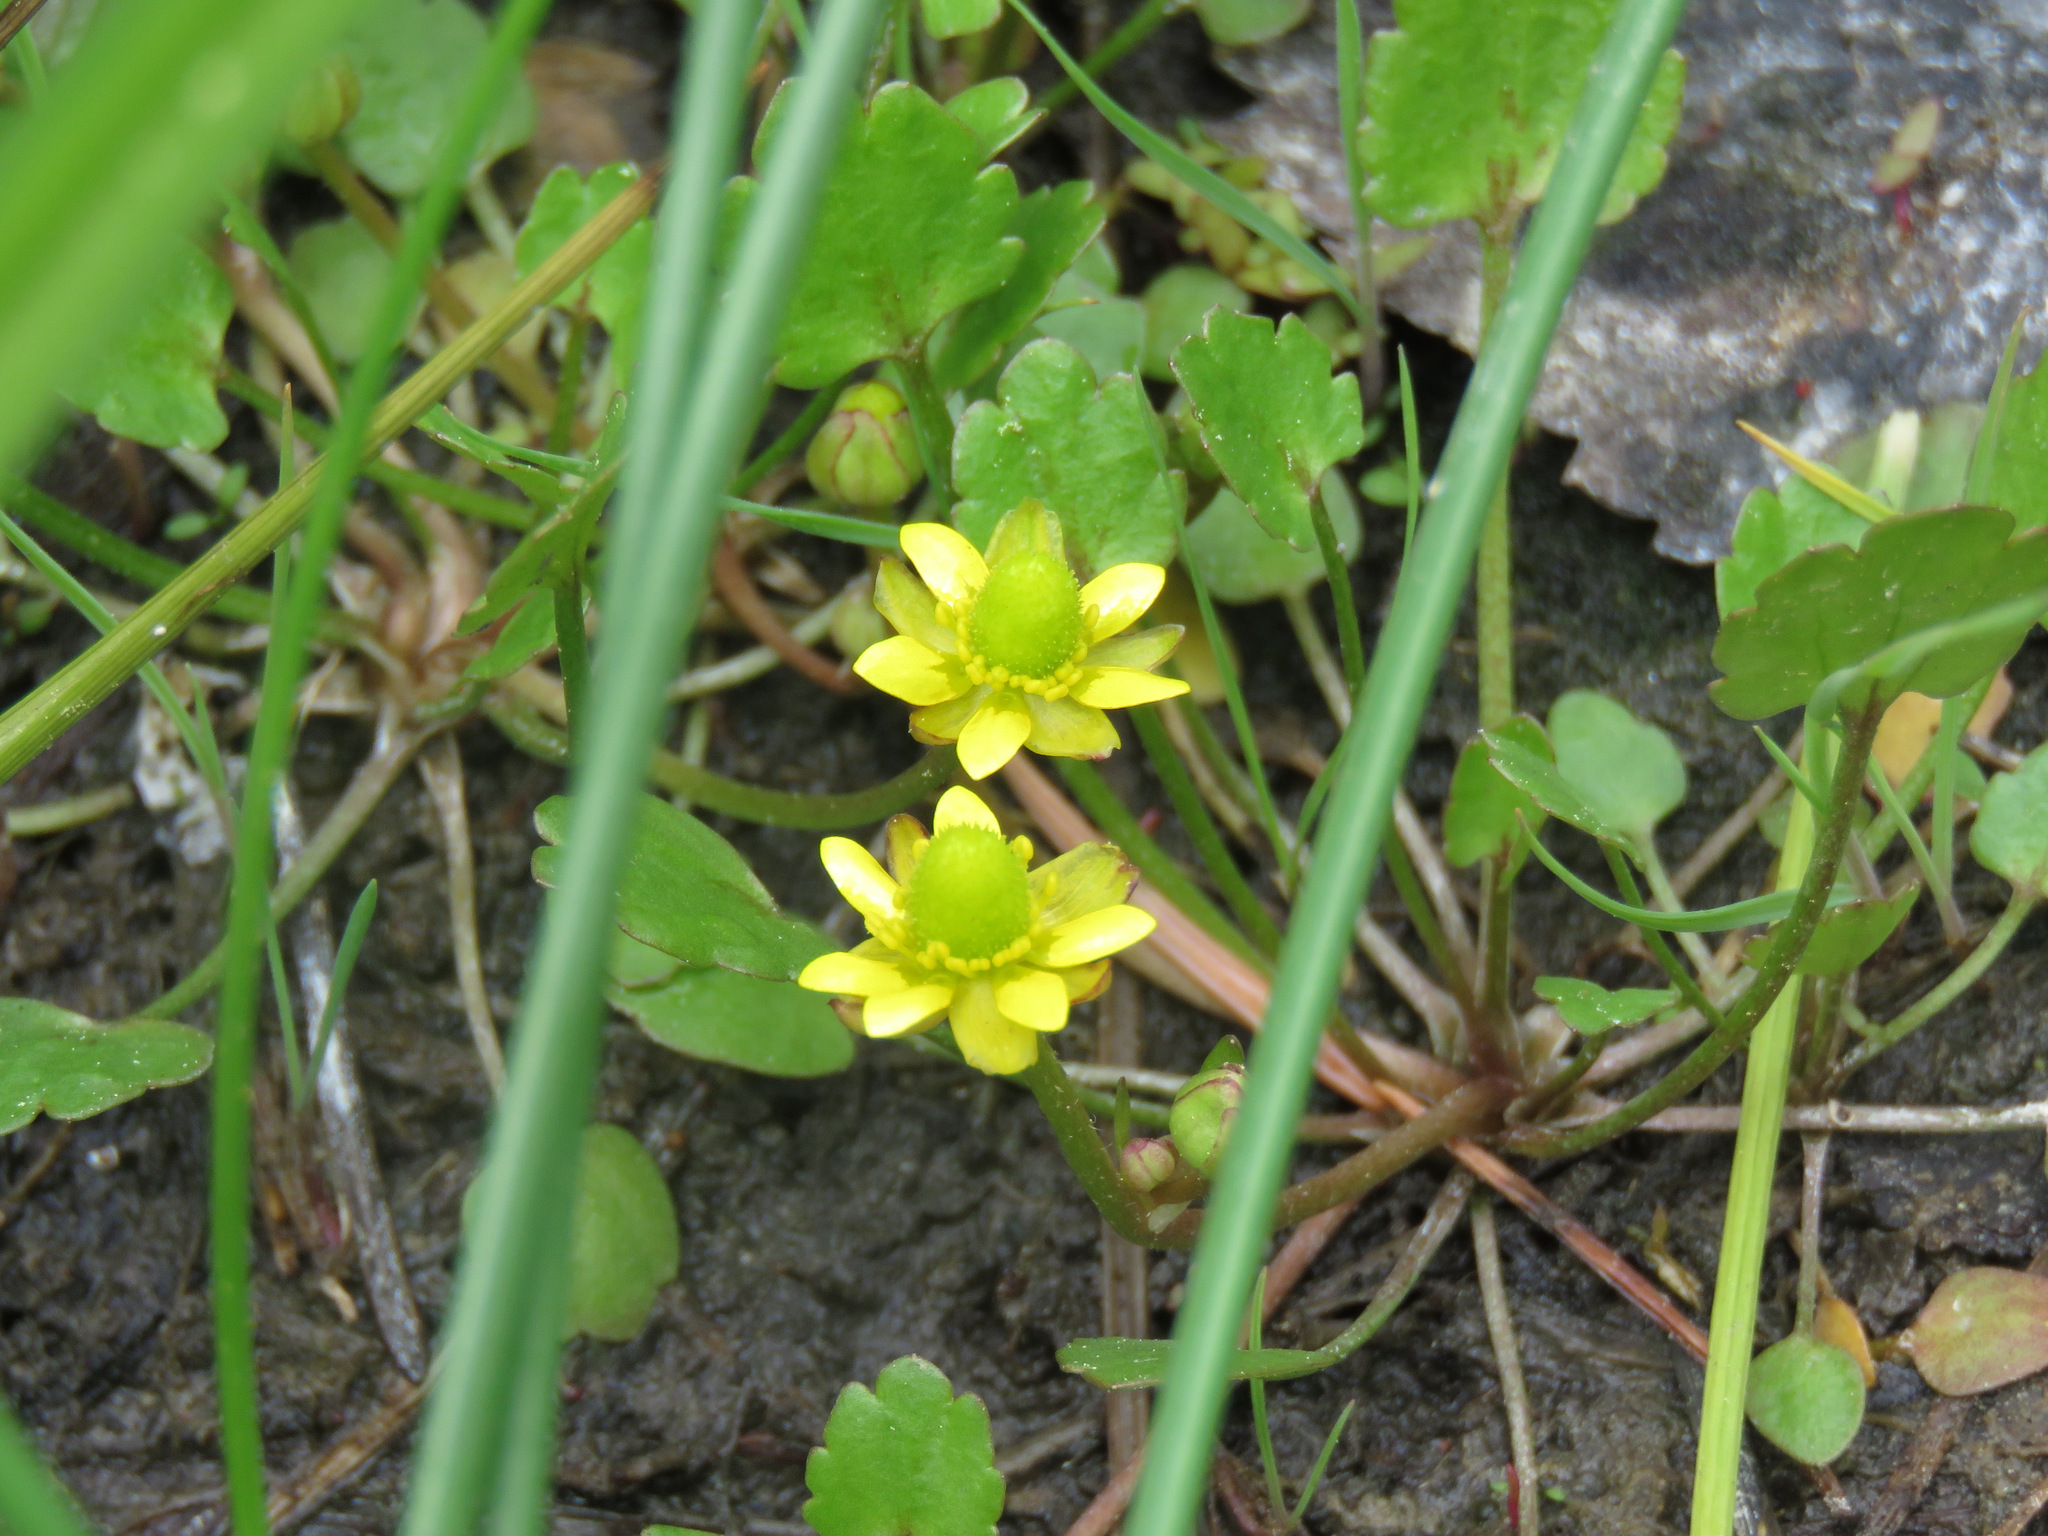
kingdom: Plantae
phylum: Tracheophyta
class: Magnoliopsida
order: Ranunculales
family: Ranunculaceae
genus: Halerpestes
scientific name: Halerpestes cymbalaria
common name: Seaside crowfoot
